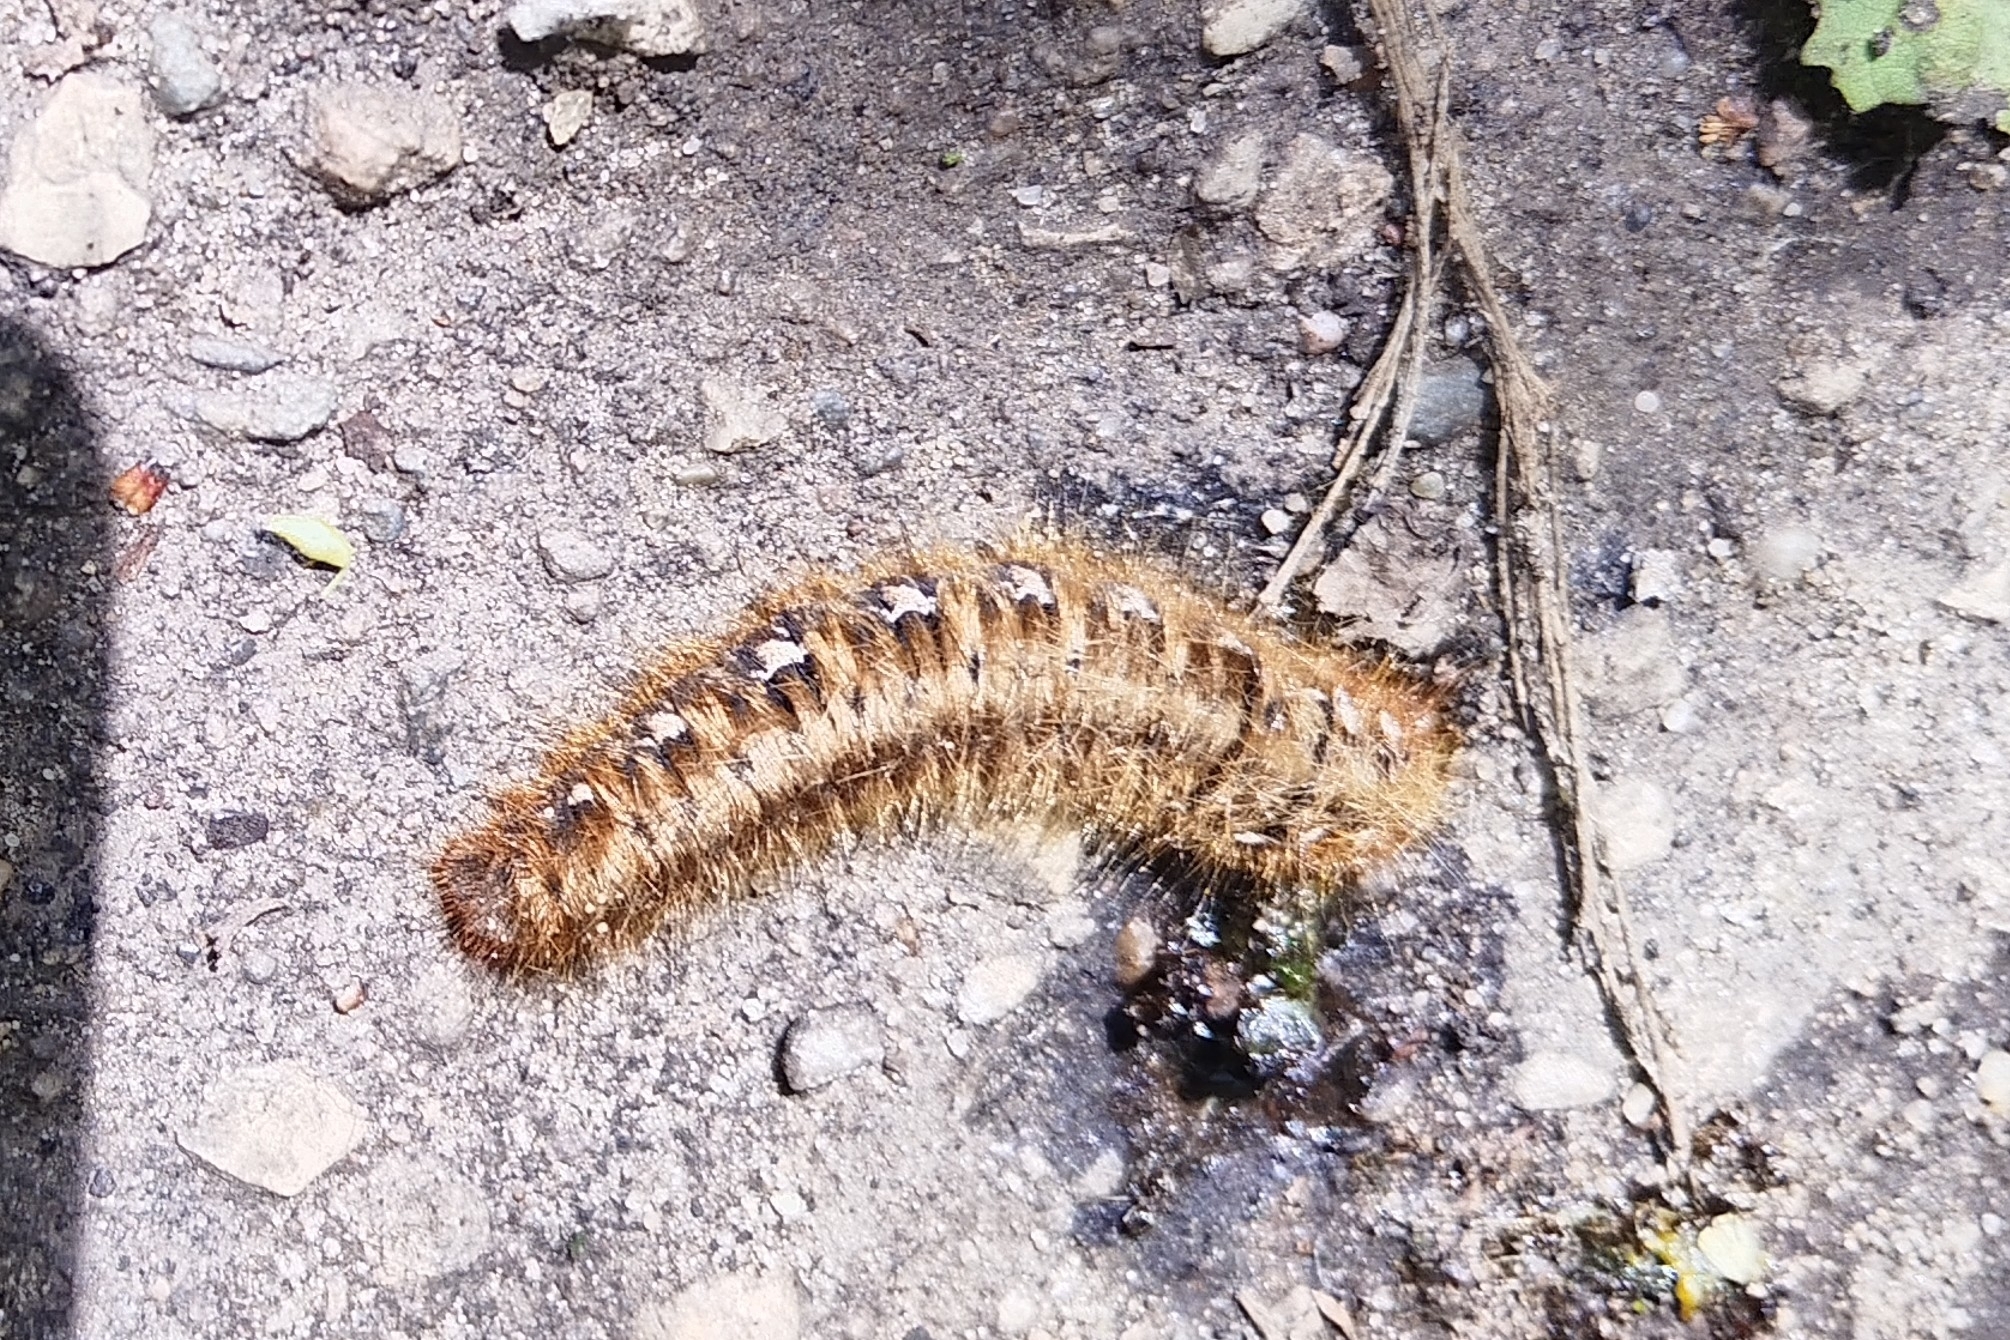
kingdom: Animalia
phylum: Arthropoda
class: Insecta
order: Lepidoptera
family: Lasiocampidae
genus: Lasiocampa
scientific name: Lasiocampa quercus
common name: Oak eggar
